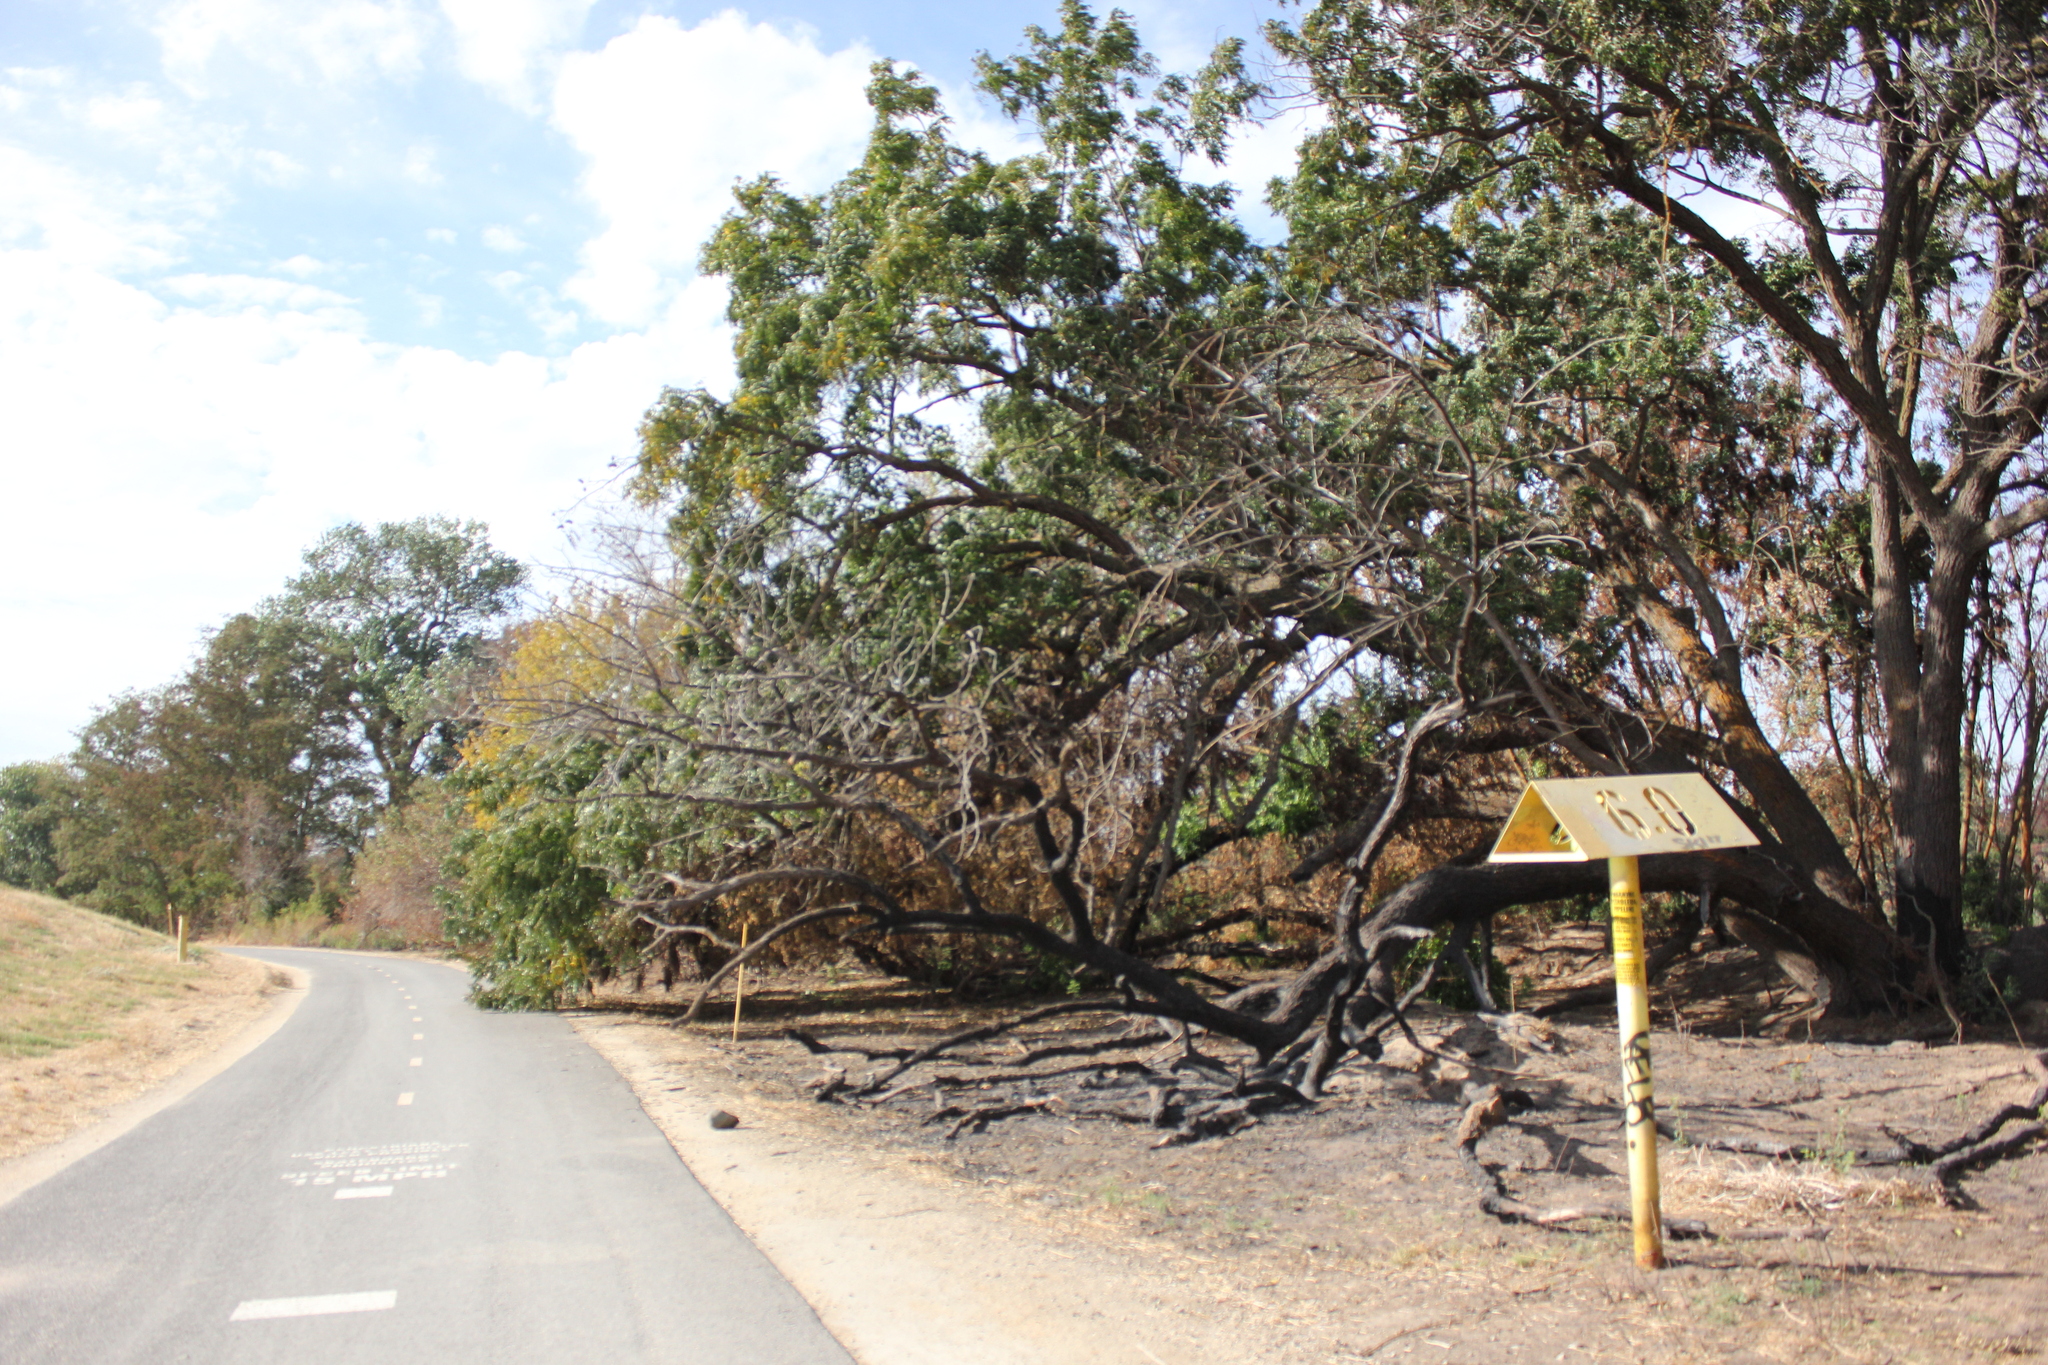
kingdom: Plantae
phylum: Tracheophyta
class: Magnoliopsida
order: Fagales
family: Juglandaceae
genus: Juglans
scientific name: Juglans hindsii
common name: Northern california black walnut
